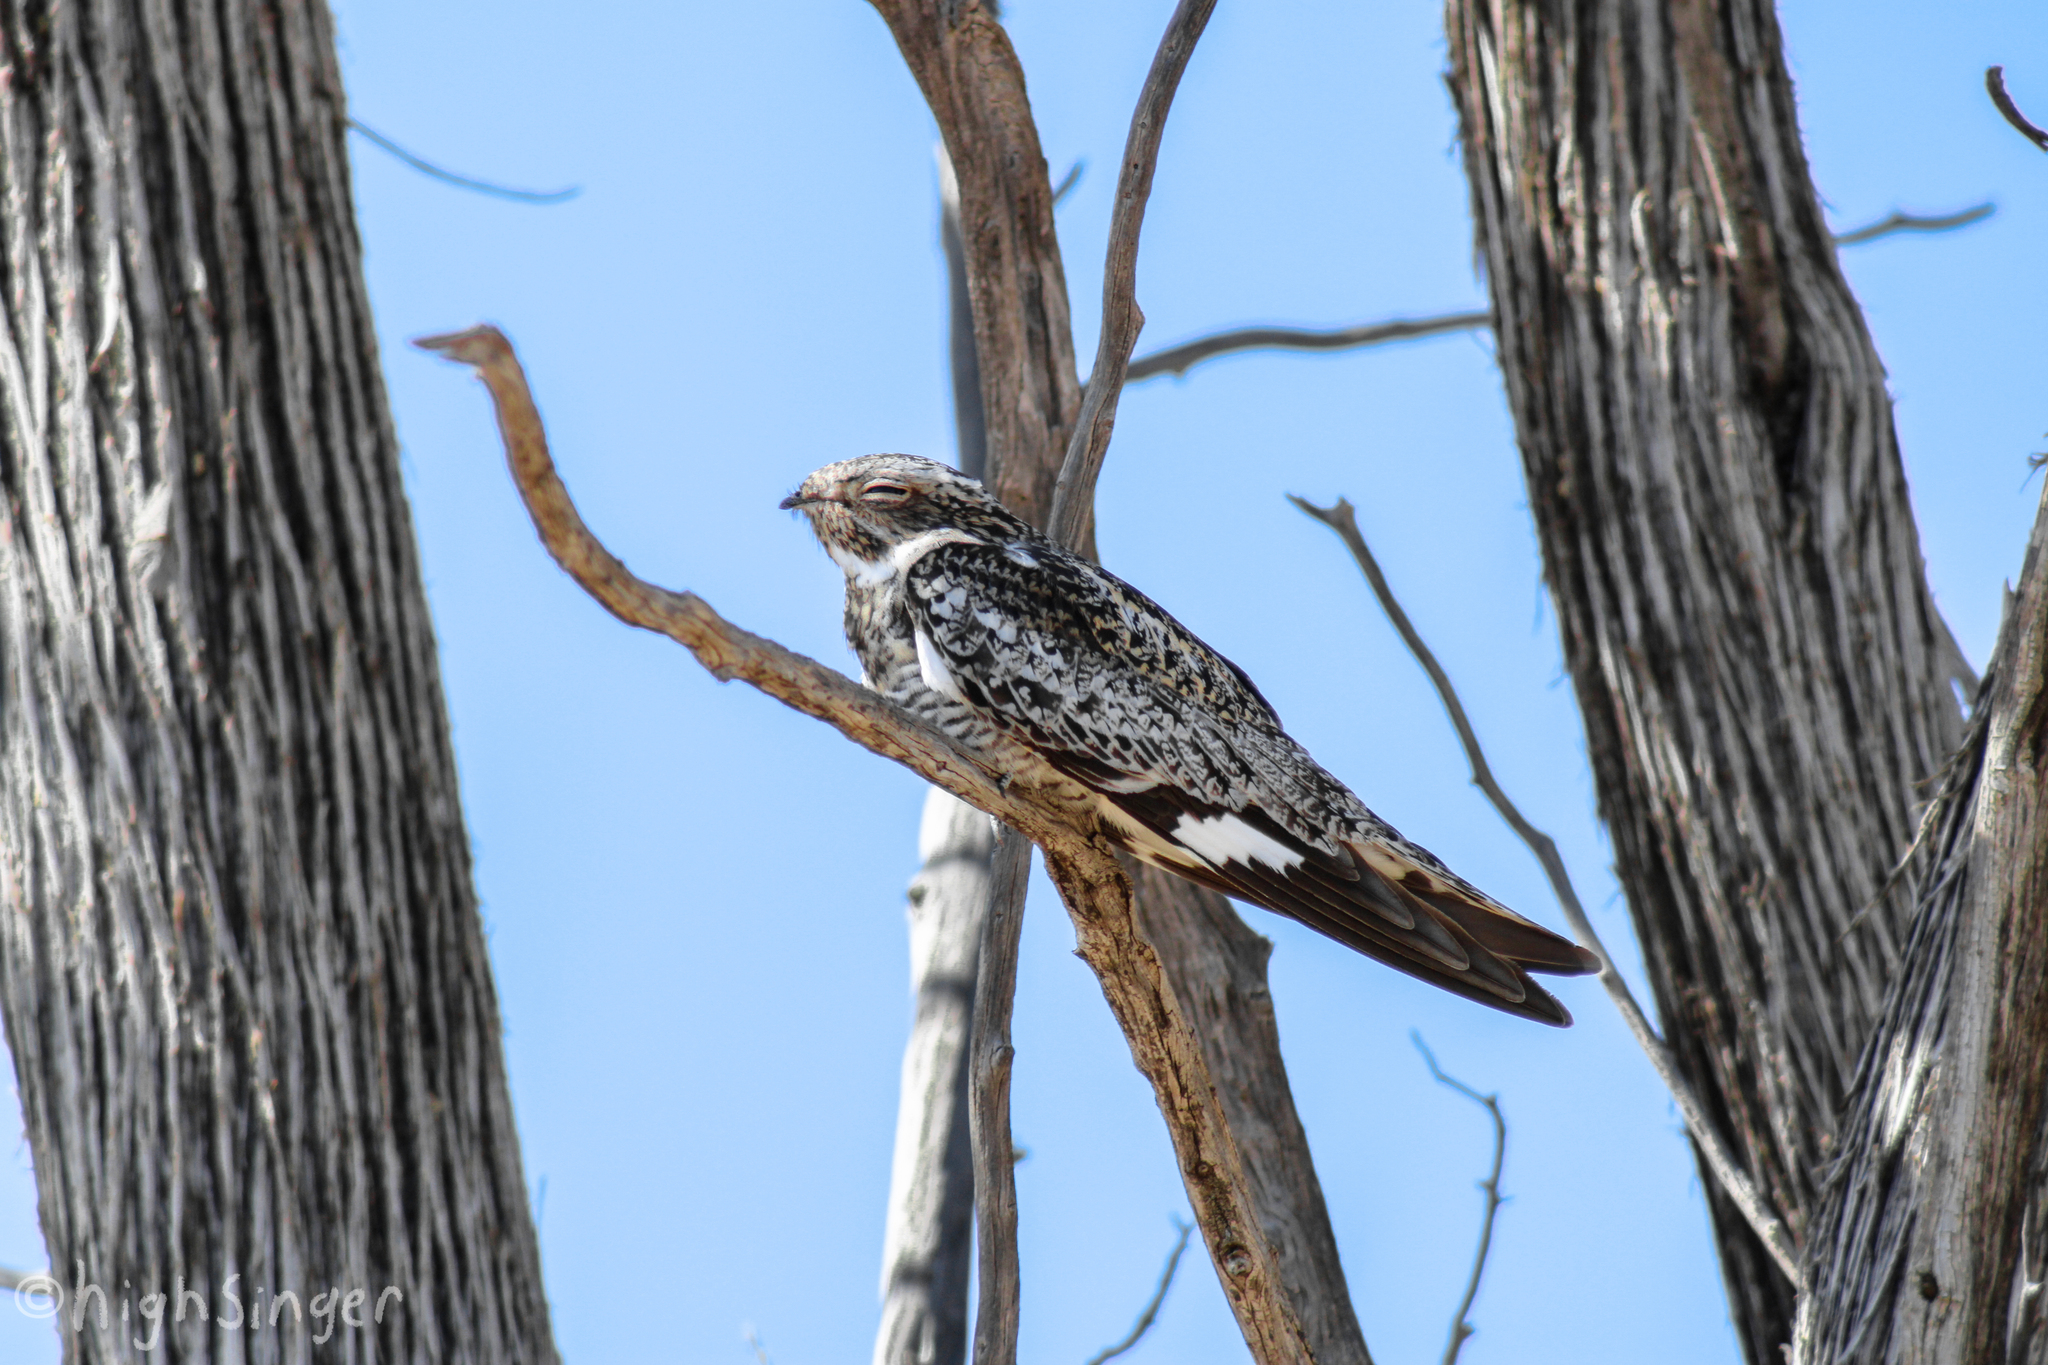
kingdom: Animalia
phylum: Chordata
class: Aves
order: Caprimulgiformes
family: Caprimulgidae
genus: Chordeiles
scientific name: Chordeiles minor
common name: Common nighthawk
